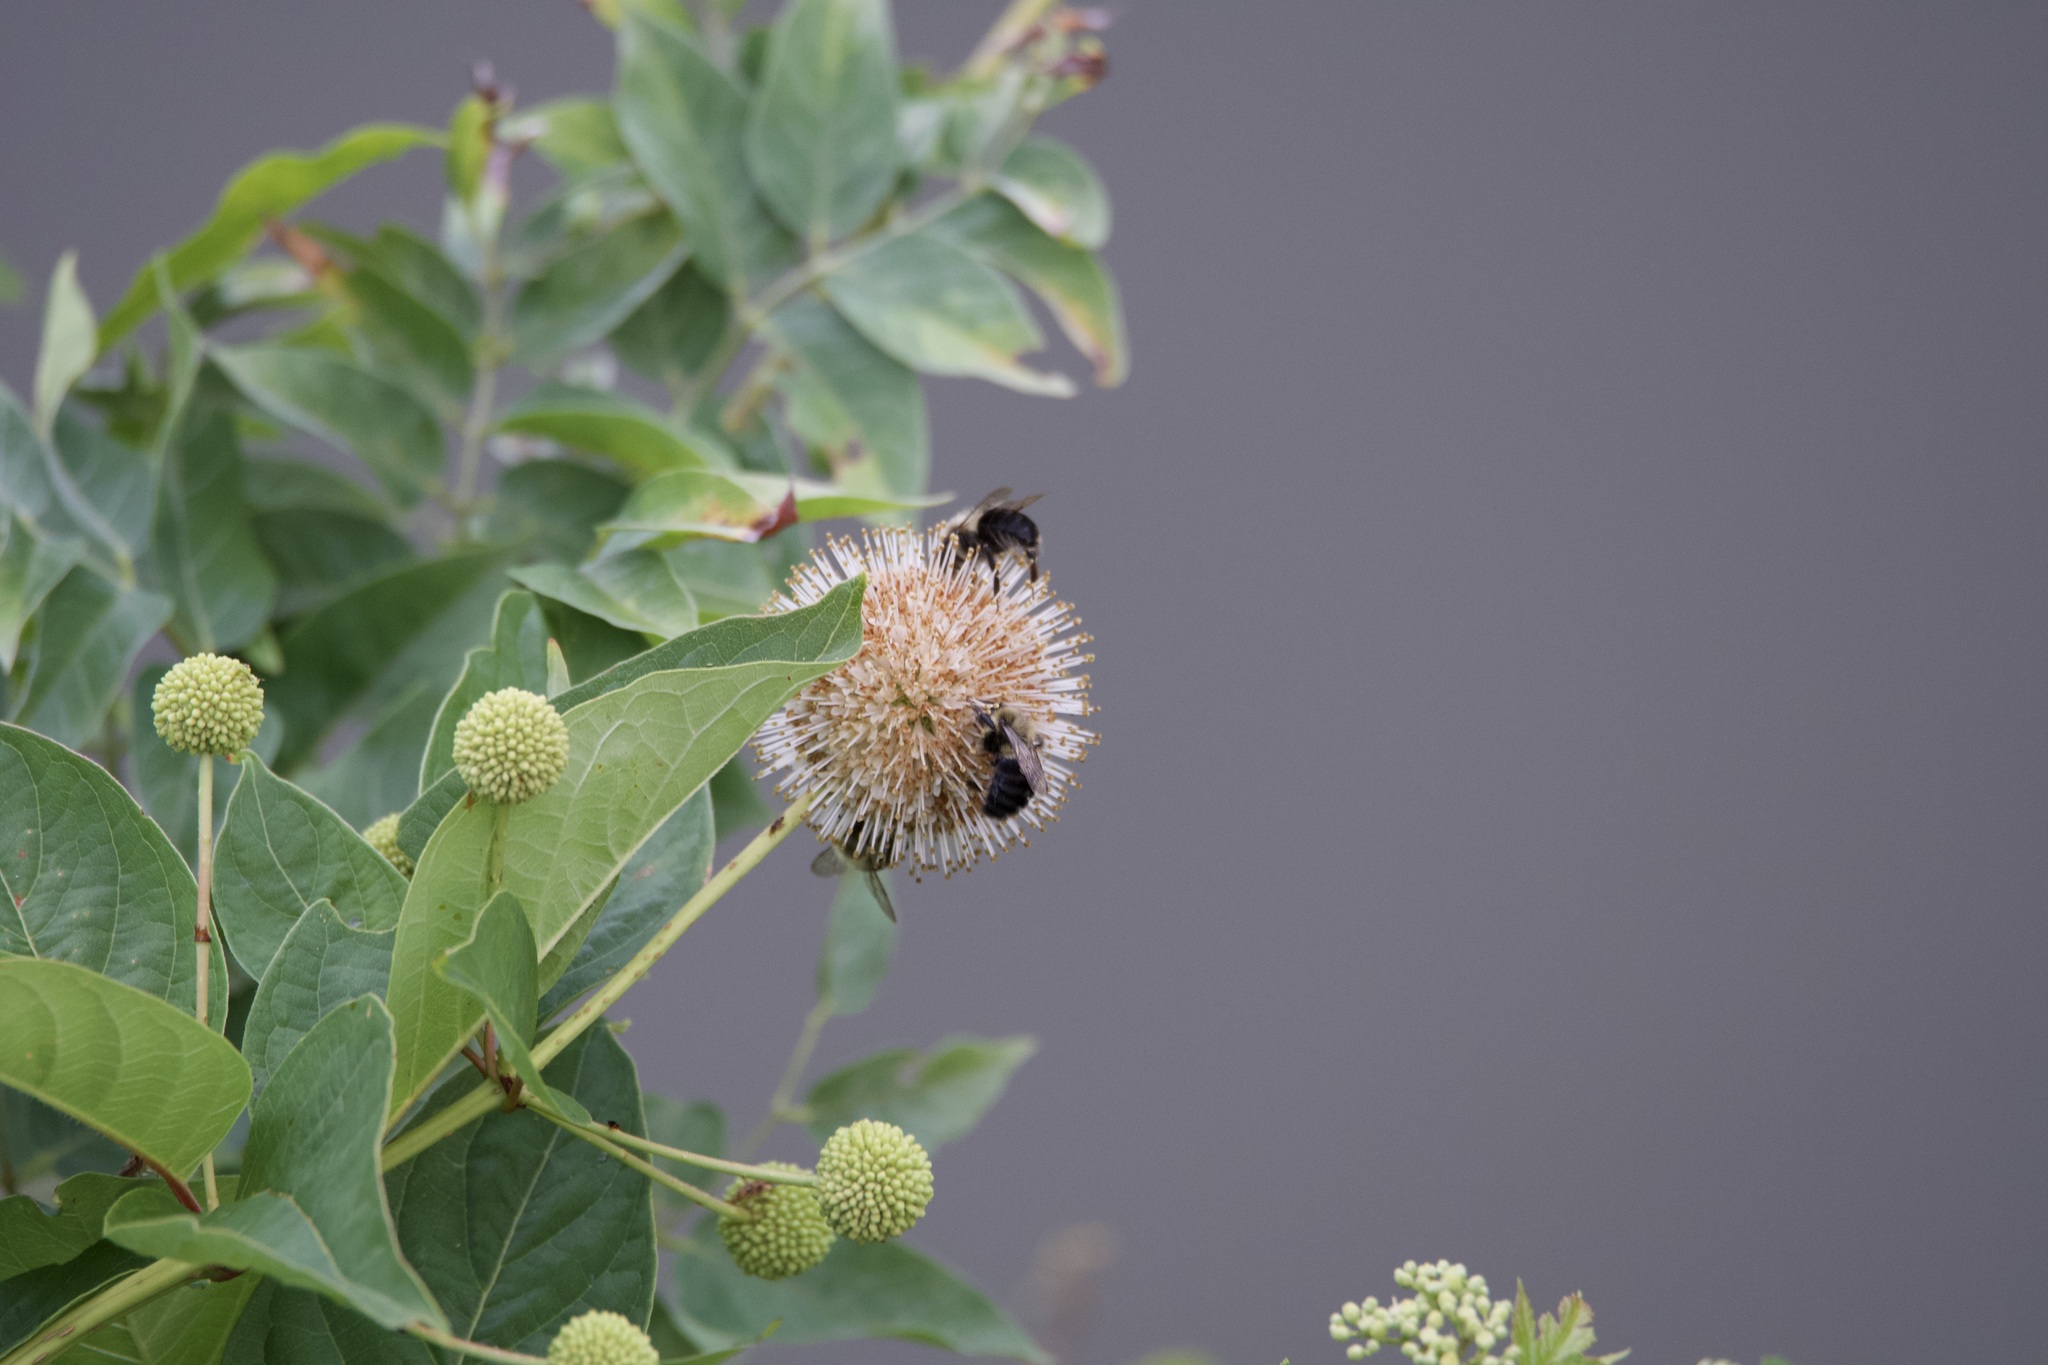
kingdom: Plantae
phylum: Tracheophyta
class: Magnoliopsida
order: Gentianales
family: Rubiaceae
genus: Cephalanthus
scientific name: Cephalanthus occidentalis
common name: Button-willow
